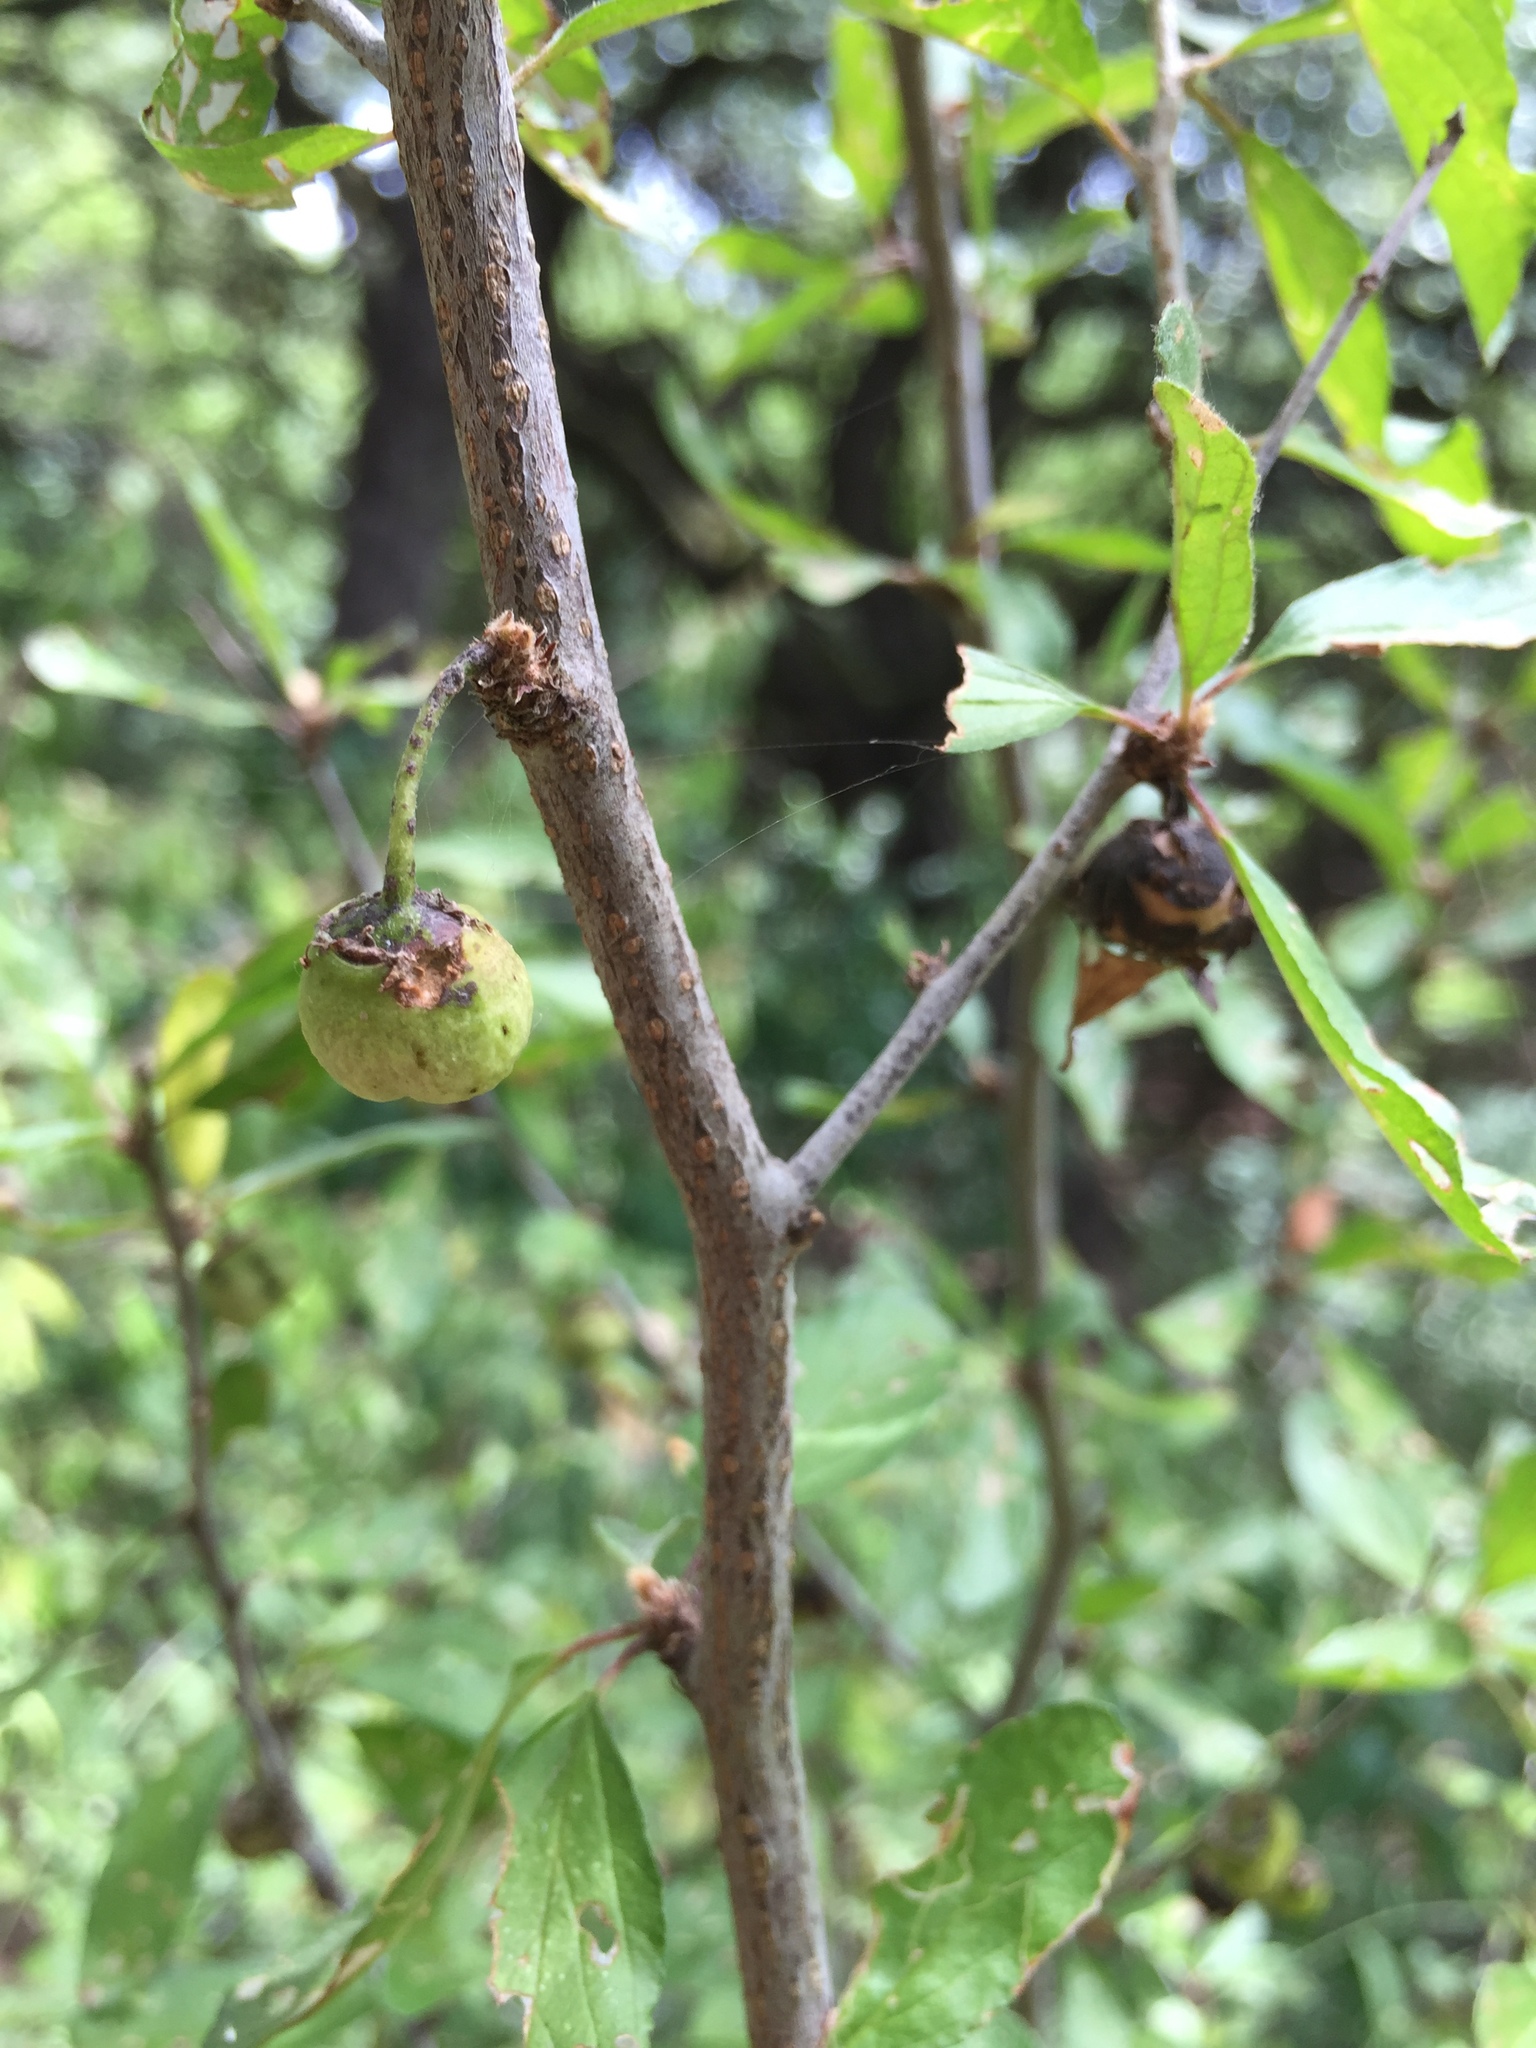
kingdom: Plantae
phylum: Tracheophyta
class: Magnoliopsida
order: Rosales
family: Rhamnaceae
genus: Colubrina
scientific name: Colubrina texensis
